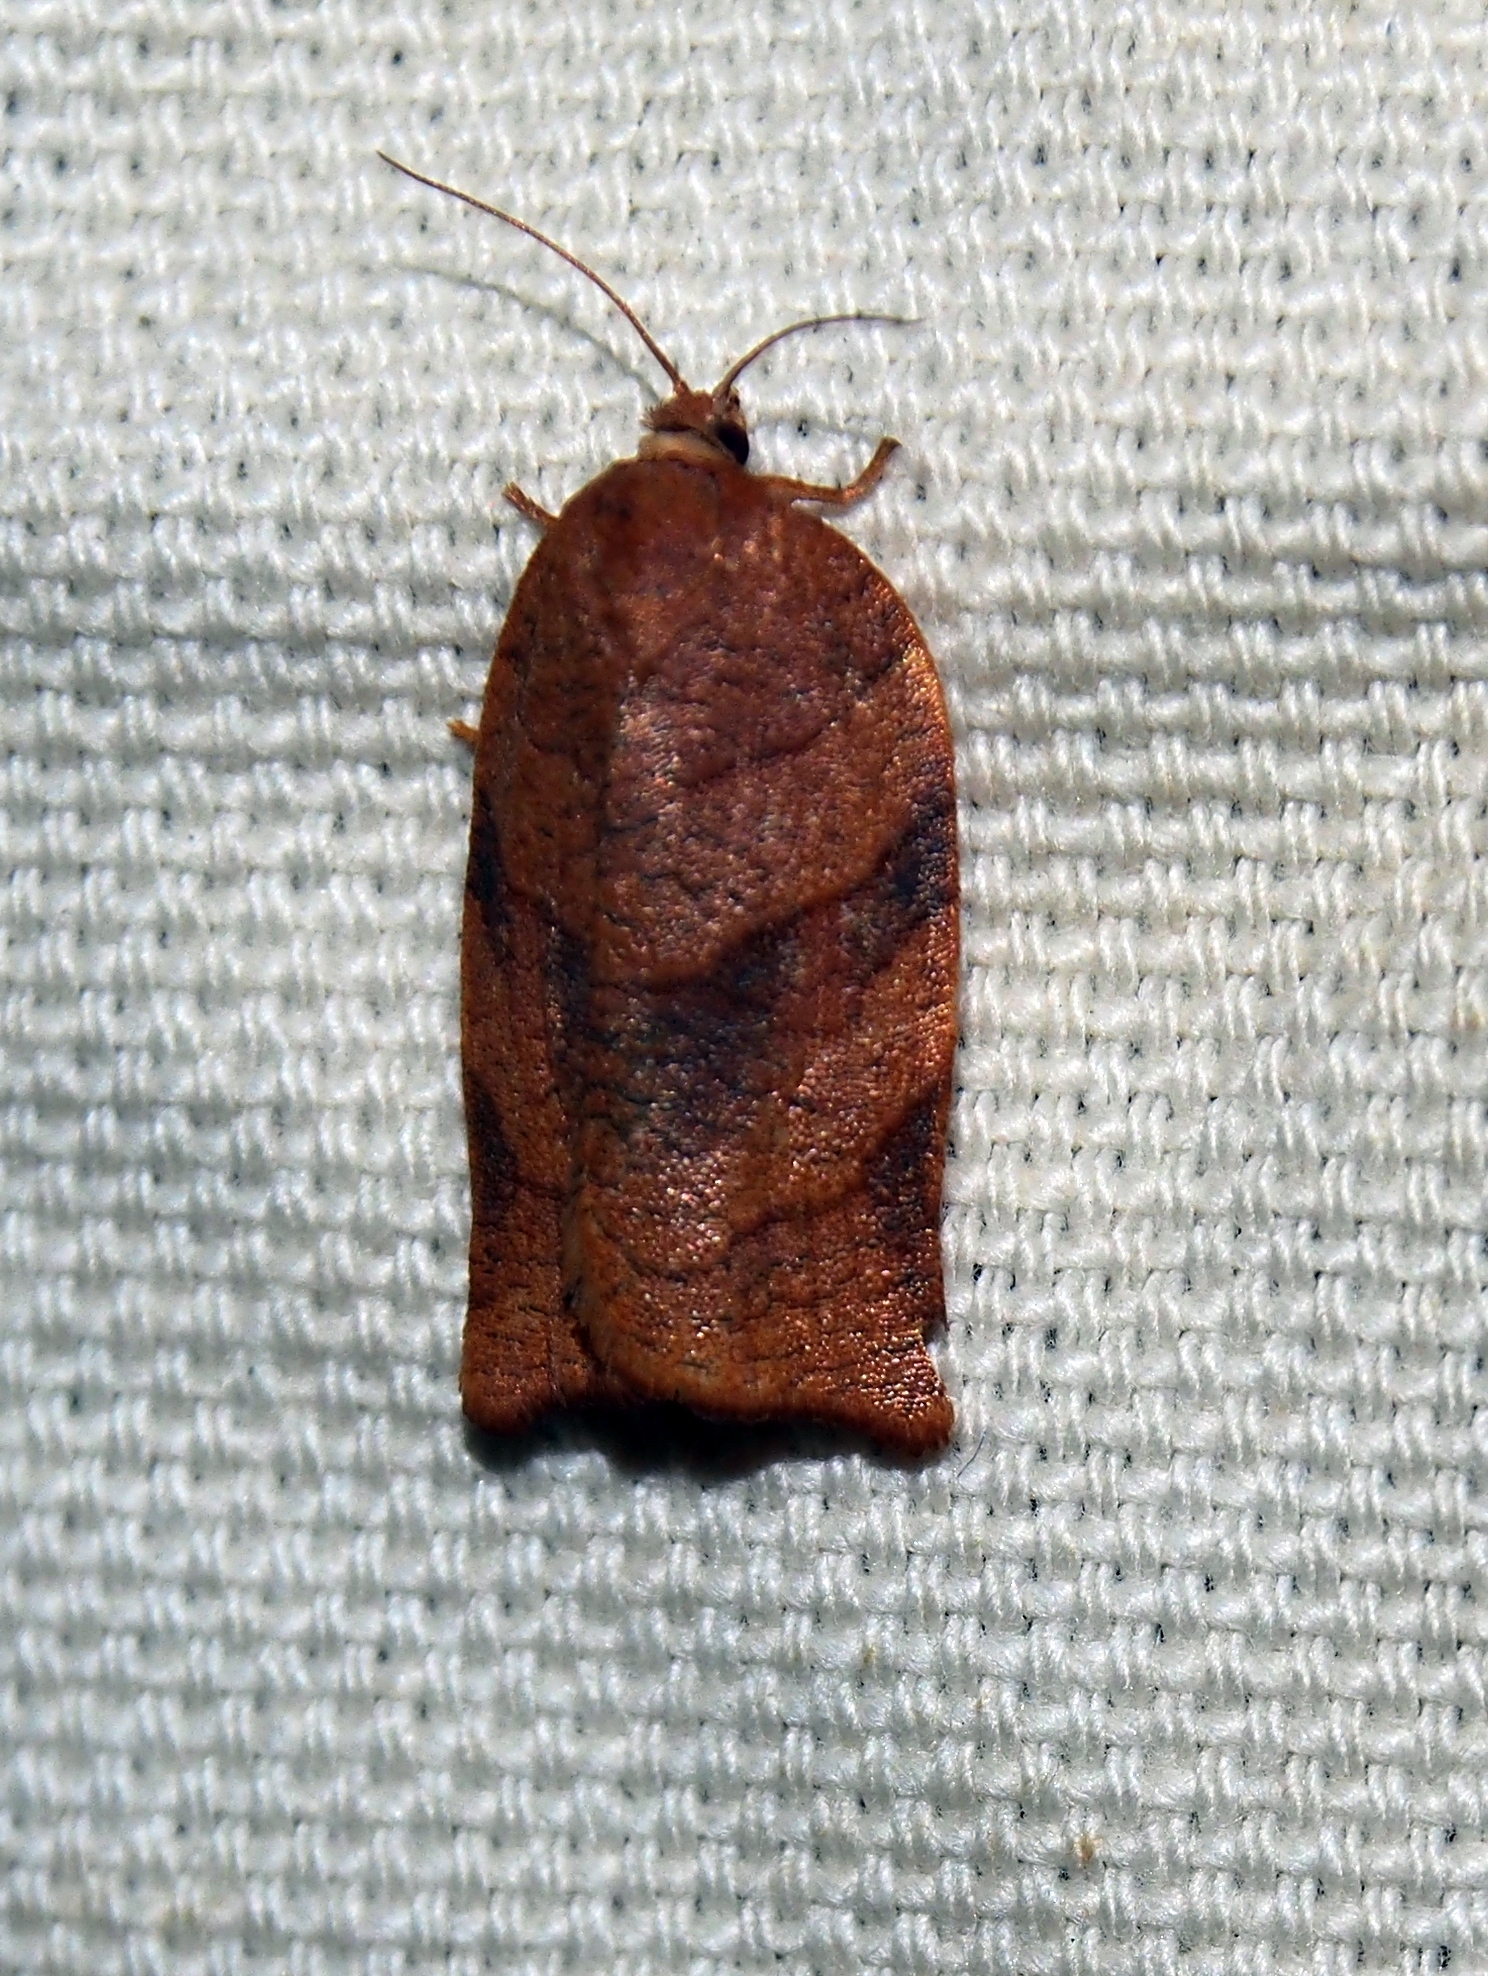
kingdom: Animalia
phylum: Arthropoda
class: Insecta
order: Lepidoptera
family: Tortricidae
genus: Choristoneura
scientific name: Choristoneura parallela
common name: Parallel-banded leafroller moth
